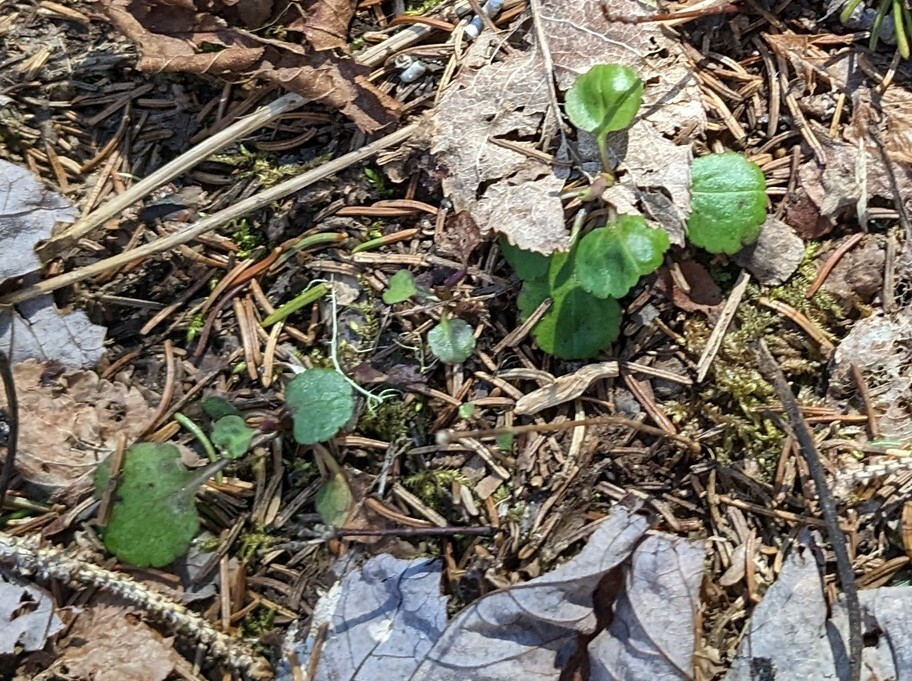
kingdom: Plantae
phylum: Tracheophyta
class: Magnoliopsida
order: Lamiales
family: Plantaginaceae
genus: Veronica
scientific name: Veronica officinalis
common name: Common speedwell
